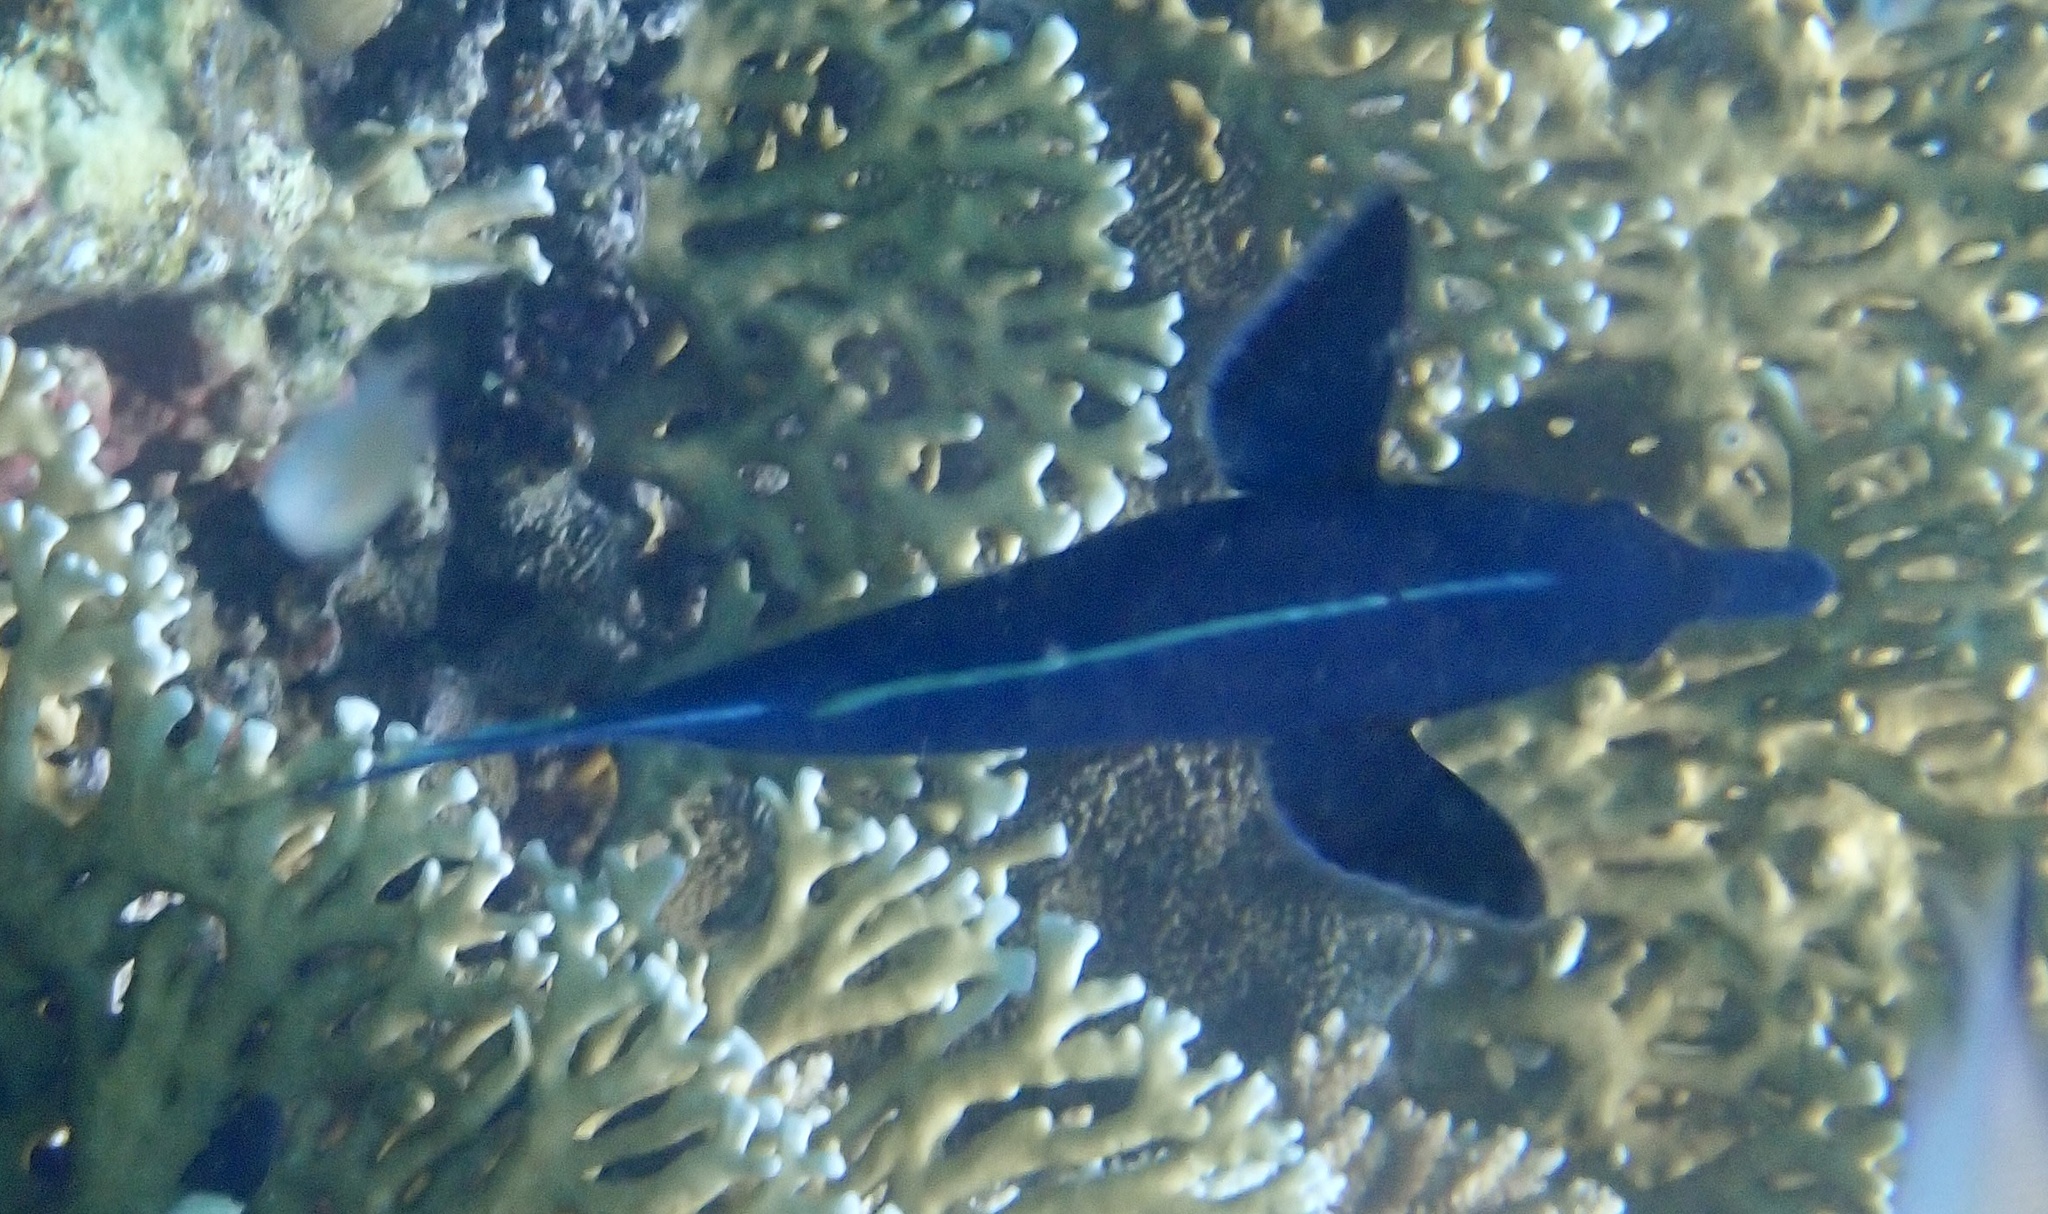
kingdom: Animalia
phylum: Chordata
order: Perciformes
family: Labridae
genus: Gomphosus
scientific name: Gomphosus klunzingeri
